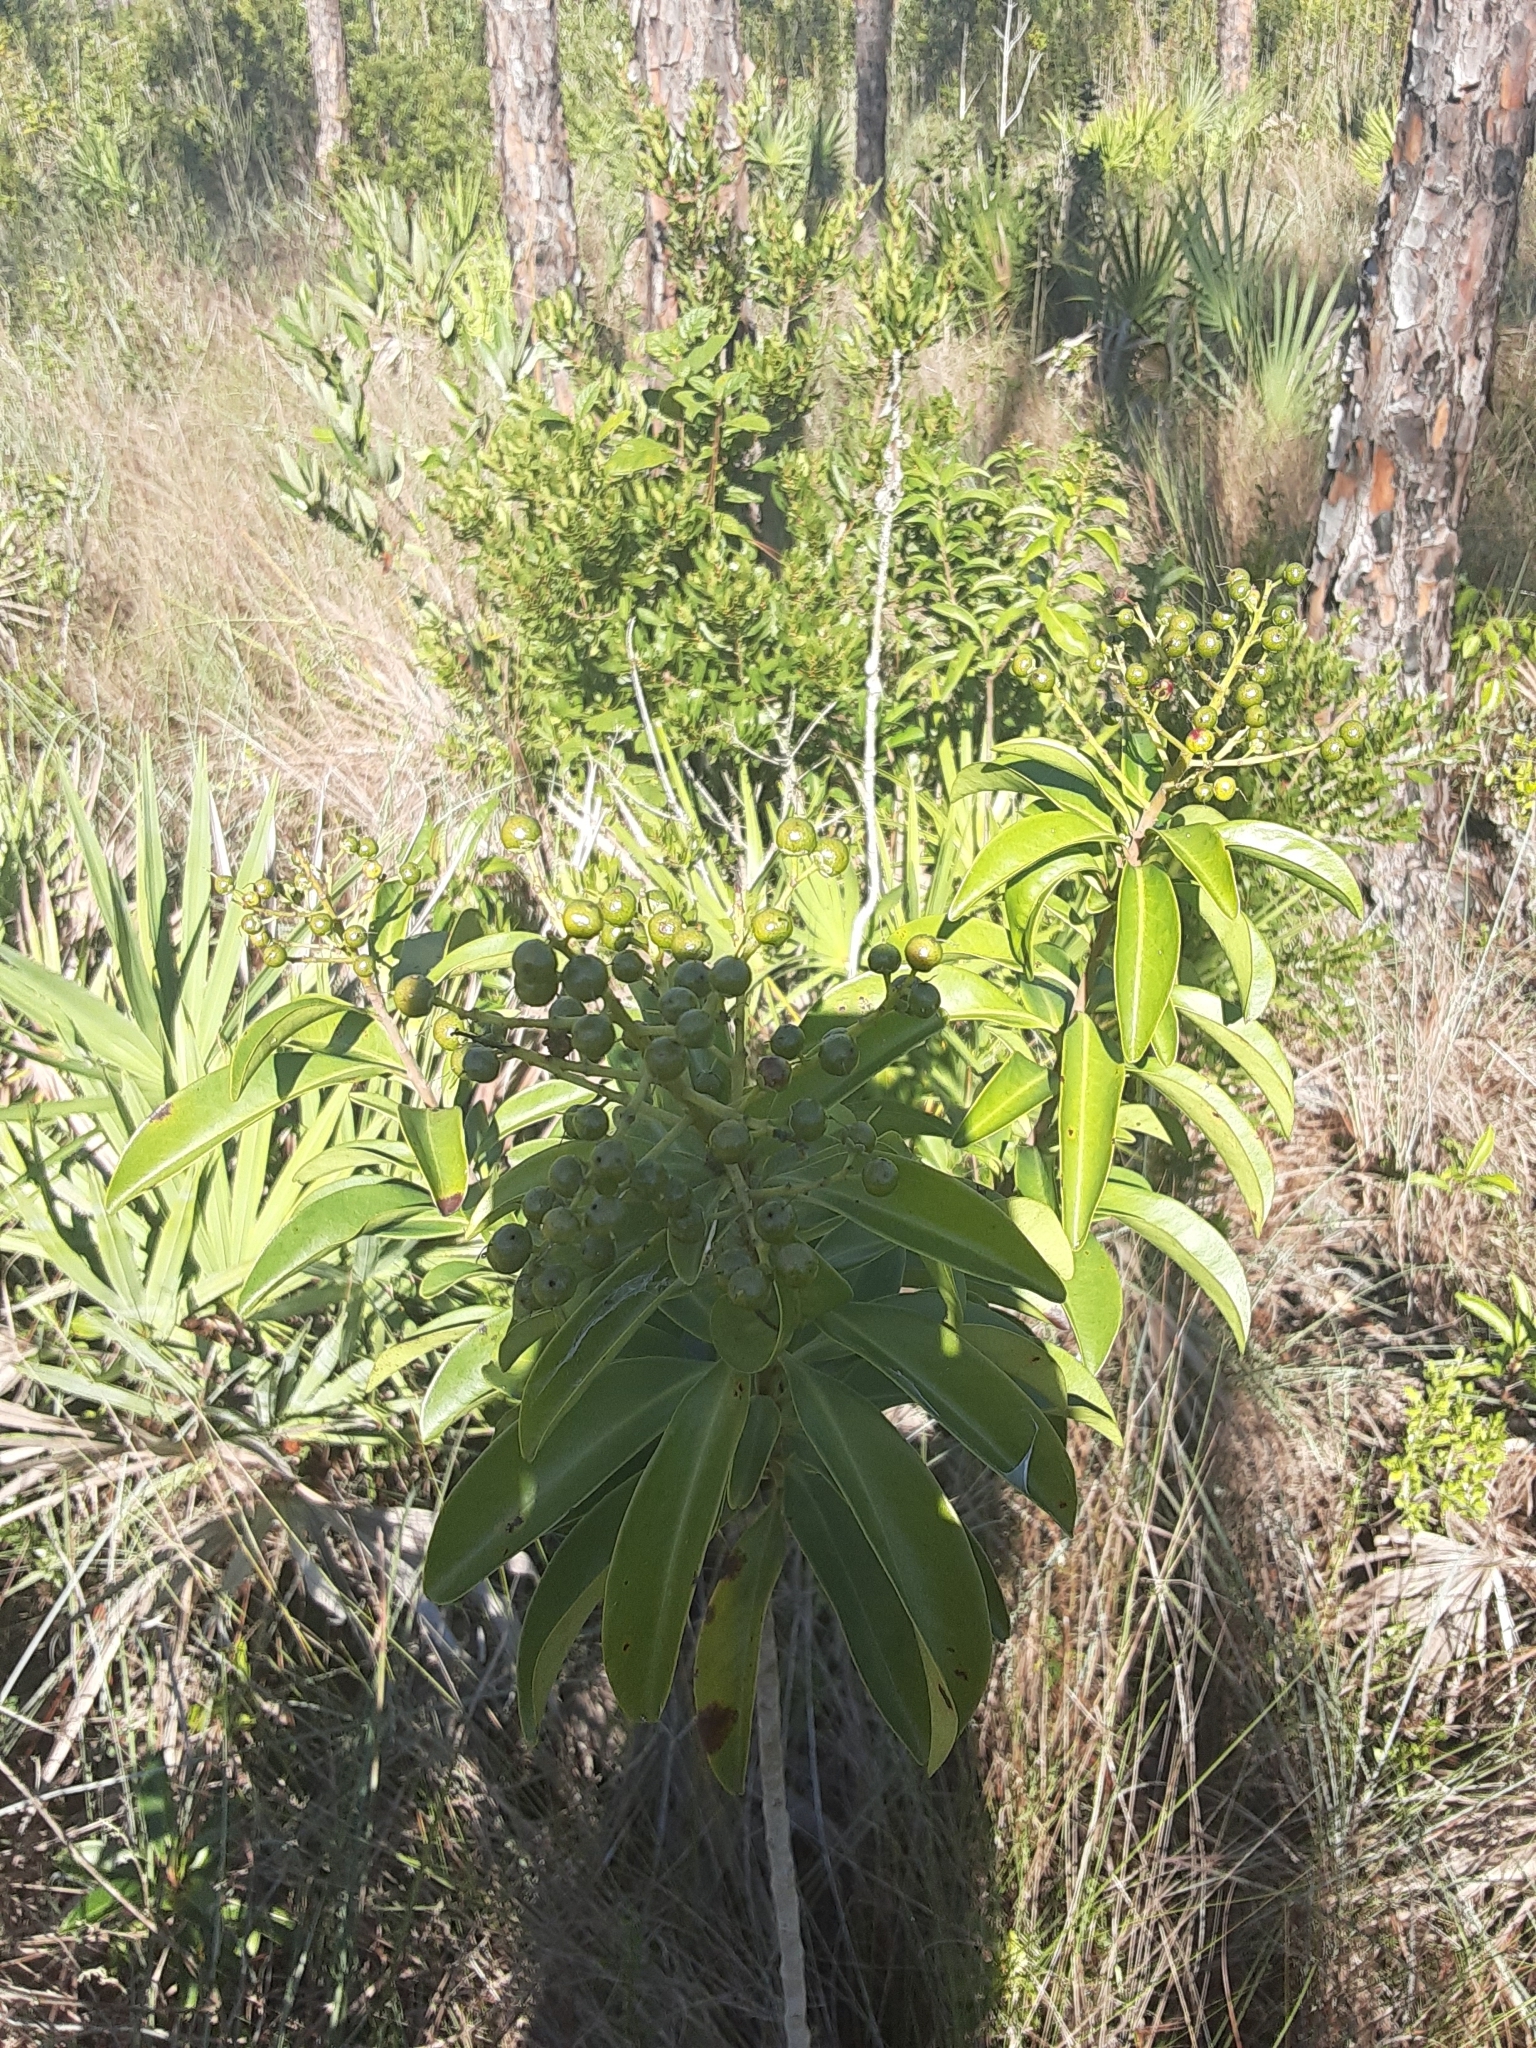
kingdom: Plantae
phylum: Tracheophyta
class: Magnoliopsida
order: Ericales
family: Primulaceae
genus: Ardisia
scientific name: Ardisia escallonioides
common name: Island marlberry
